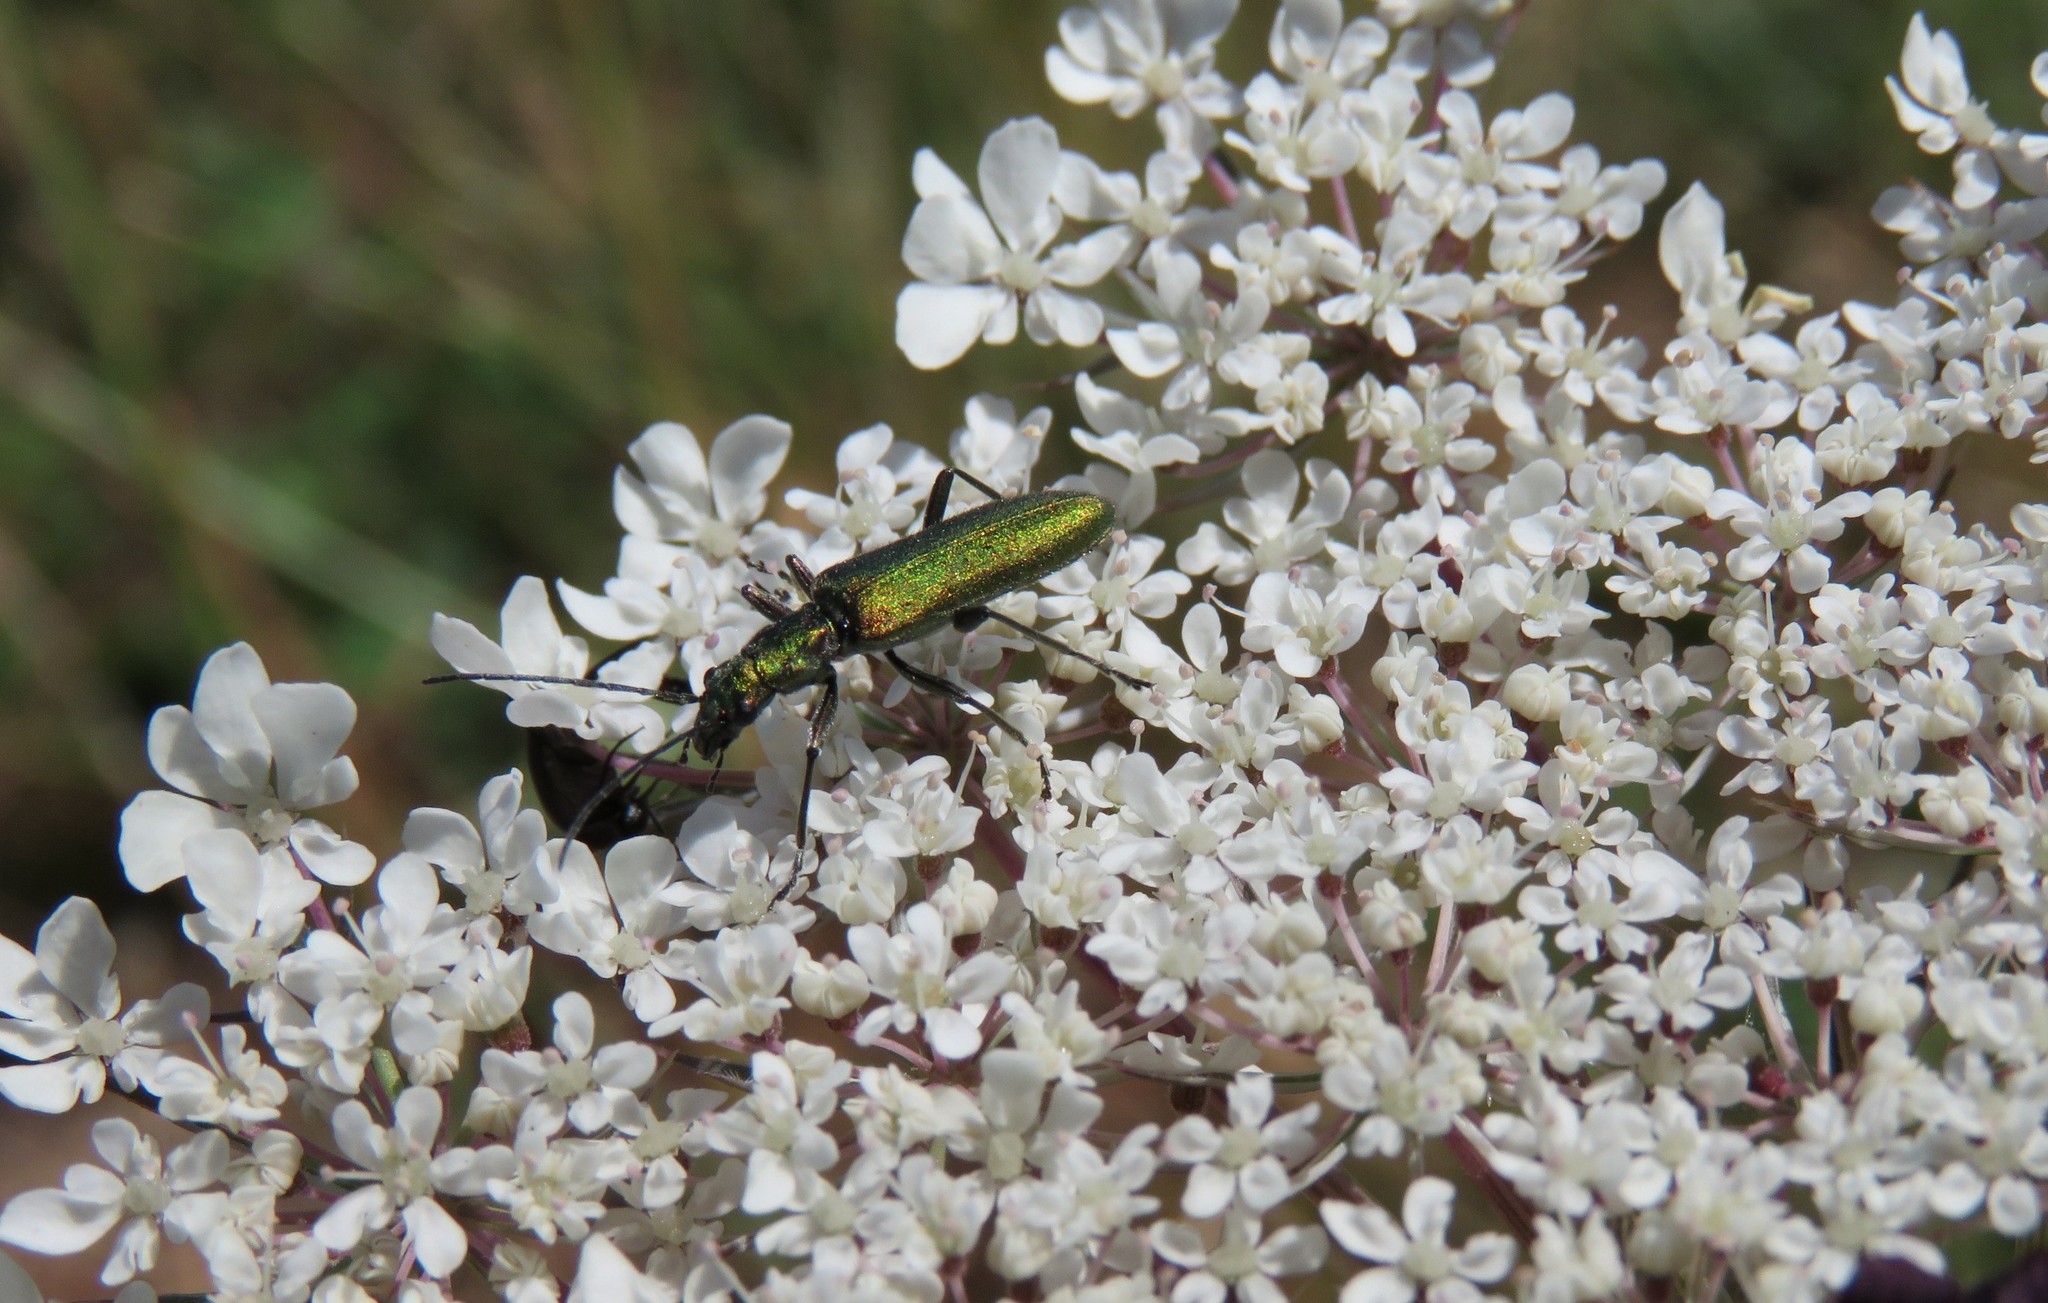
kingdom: Animalia
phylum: Arthropoda
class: Insecta
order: Coleoptera
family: Oedemeridae
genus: Chrysanthia
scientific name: Chrysanthia superba
